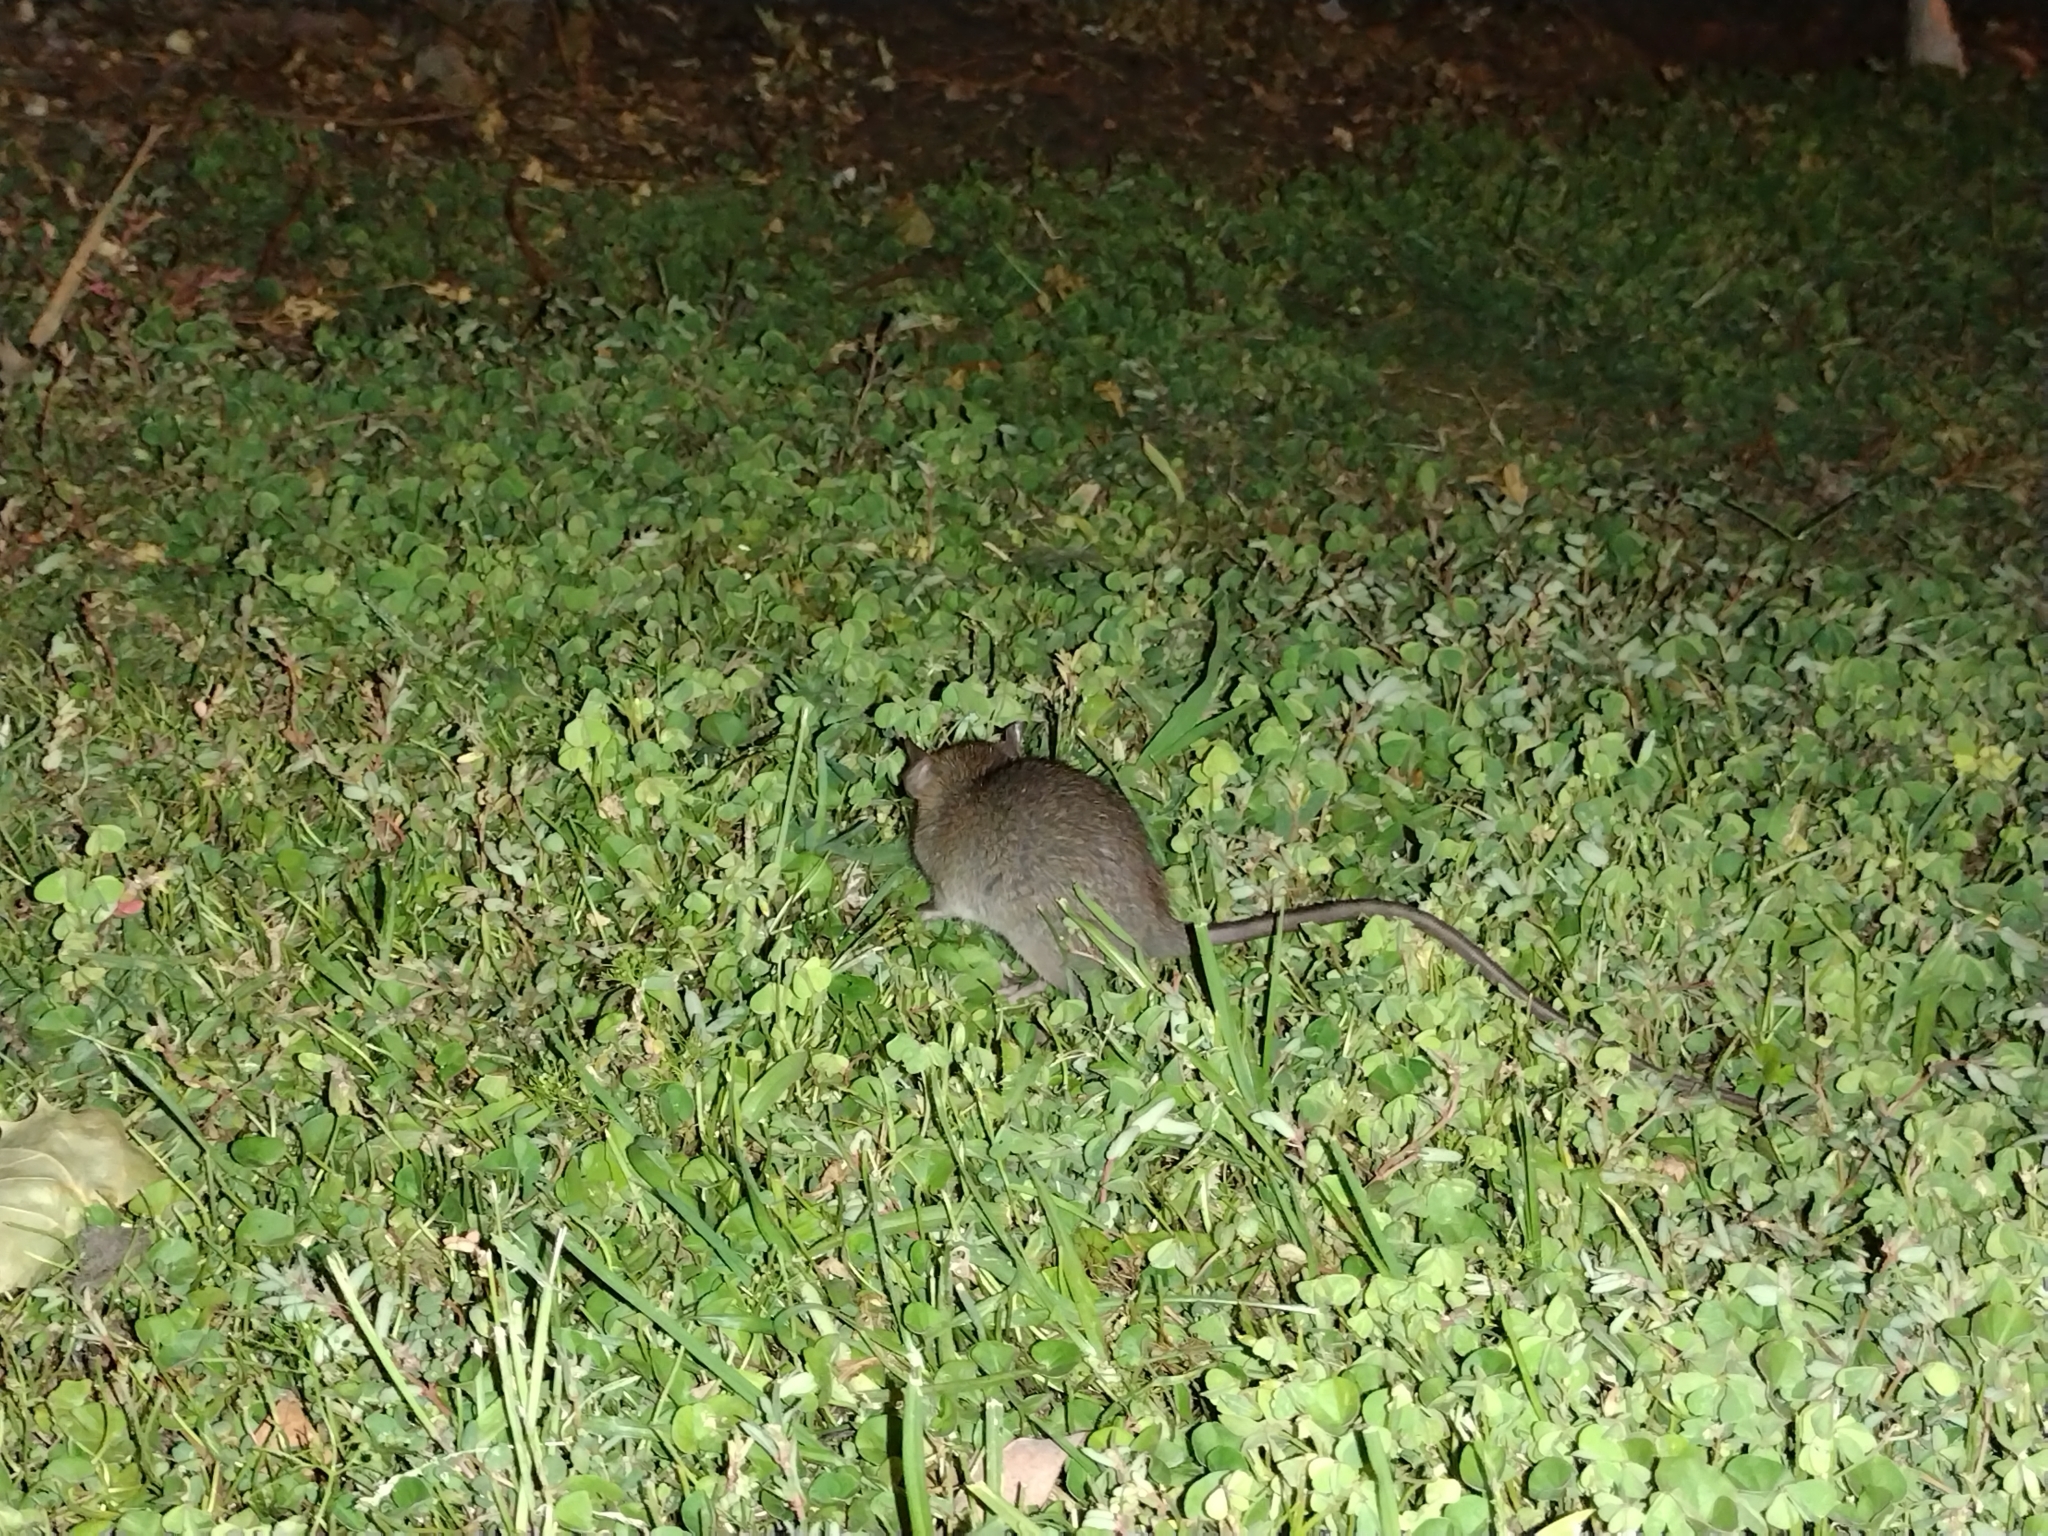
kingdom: Animalia
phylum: Chordata
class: Mammalia
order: Rodentia
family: Muridae
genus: Mus
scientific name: Mus musculus
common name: House mouse
